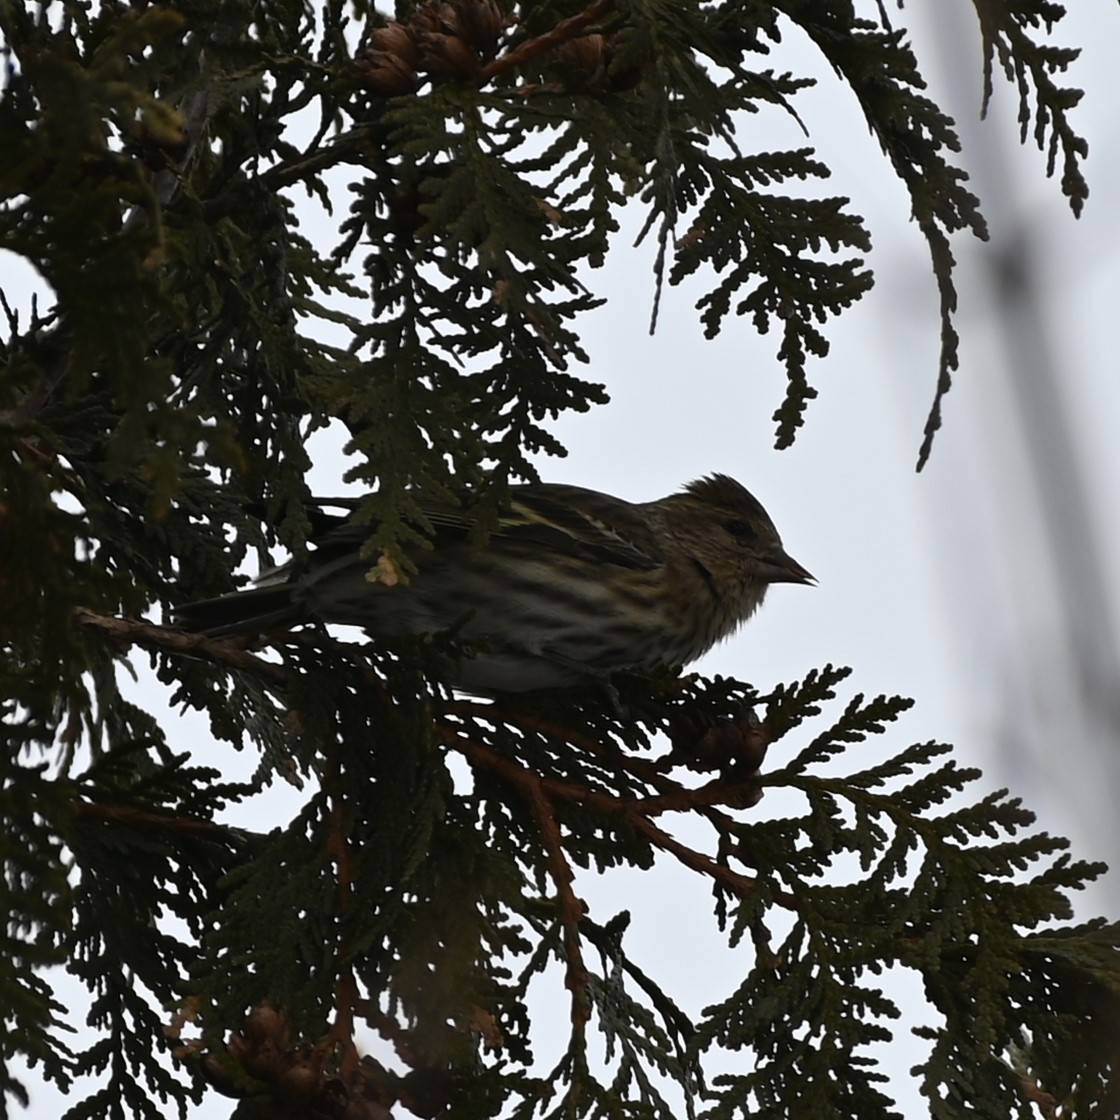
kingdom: Animalia
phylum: Chordata
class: Aves
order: Passeriformes
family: Fringillidae
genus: Spinus
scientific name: Spinus pinus
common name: Pine siskin
